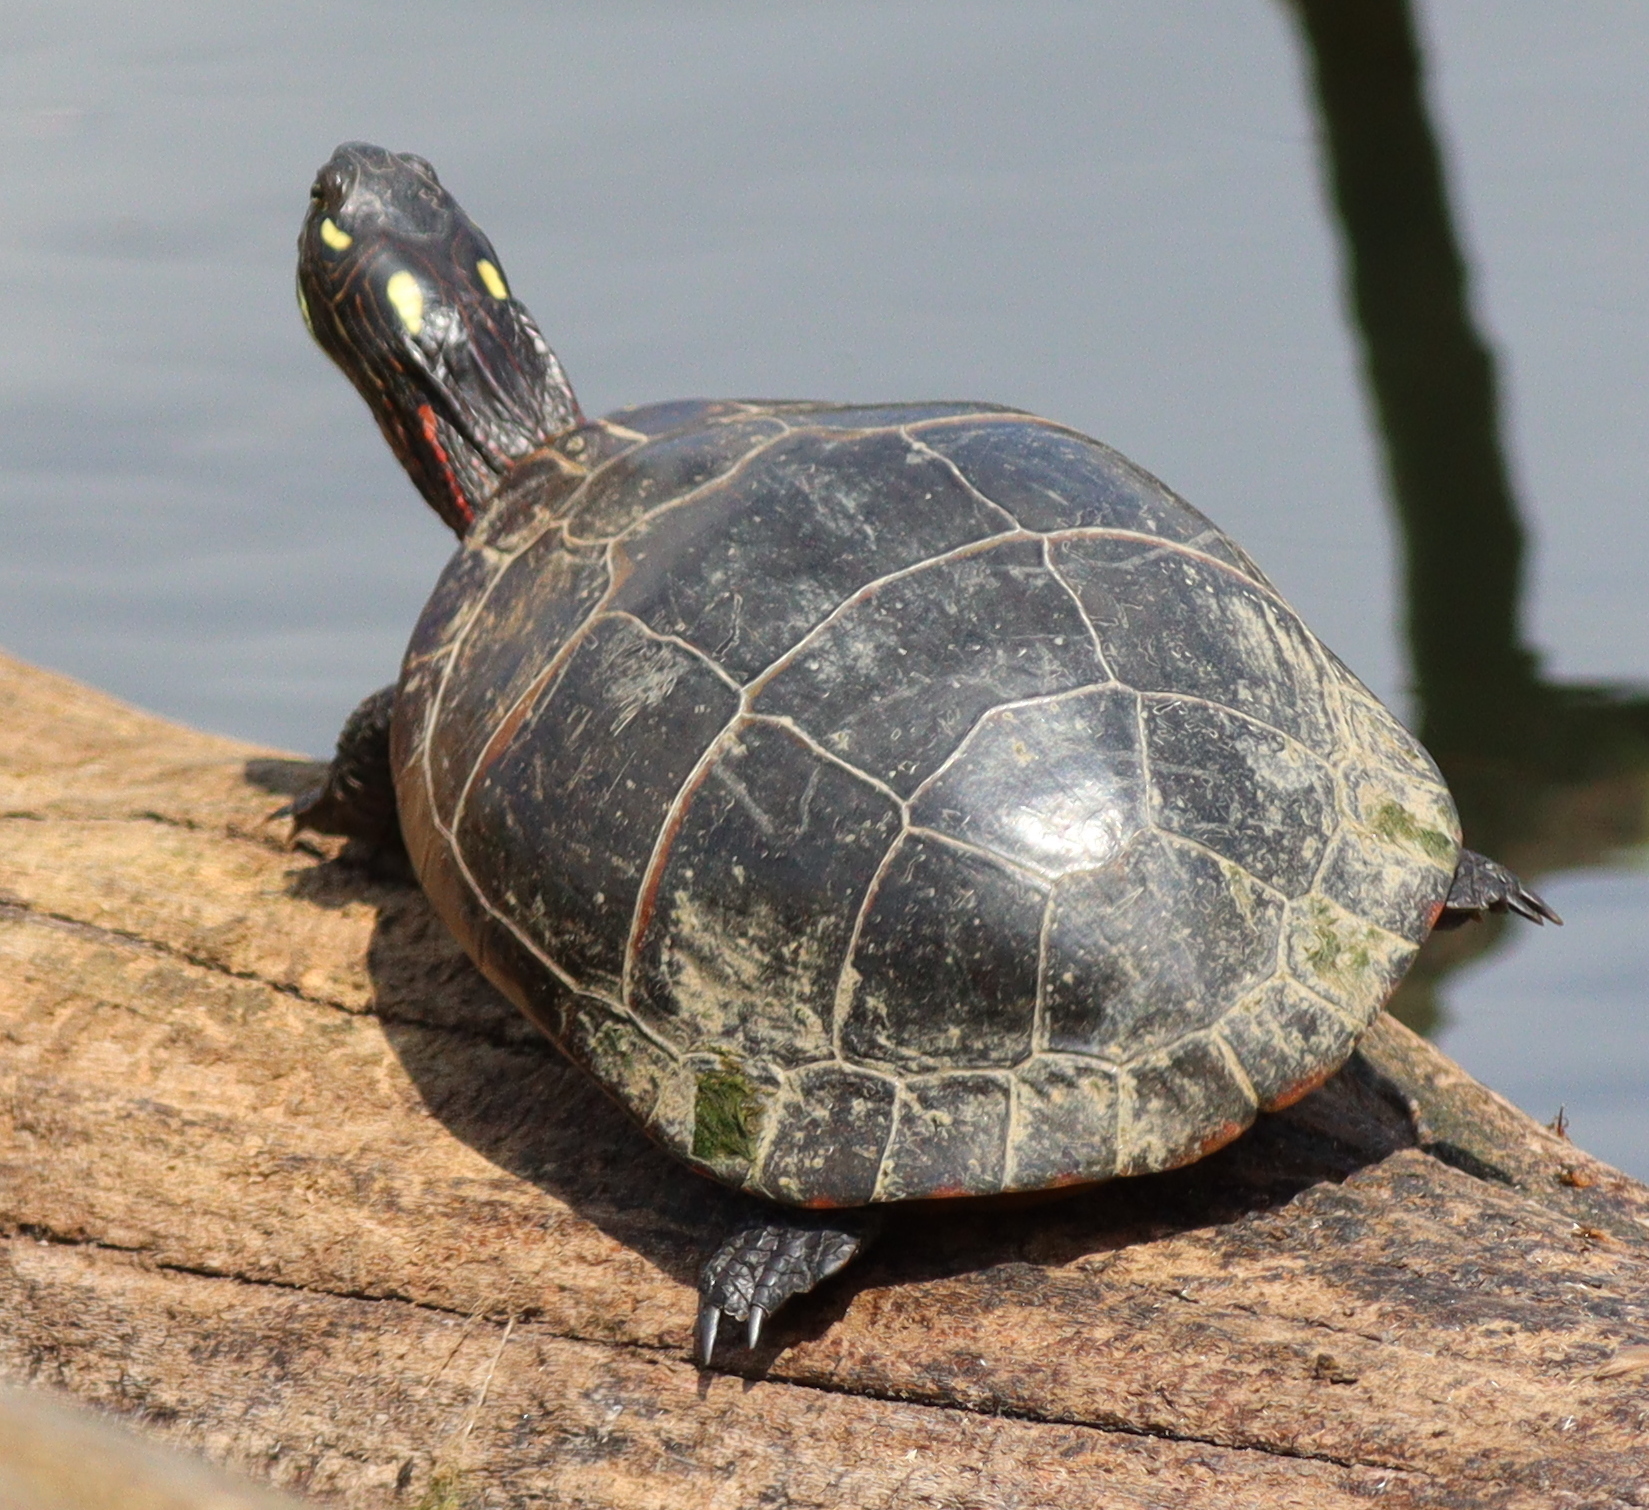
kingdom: Animalia
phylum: Chordata
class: Testudines
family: Emydidae
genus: Chrysemys
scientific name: Chrysemys picta
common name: Painted turtle
